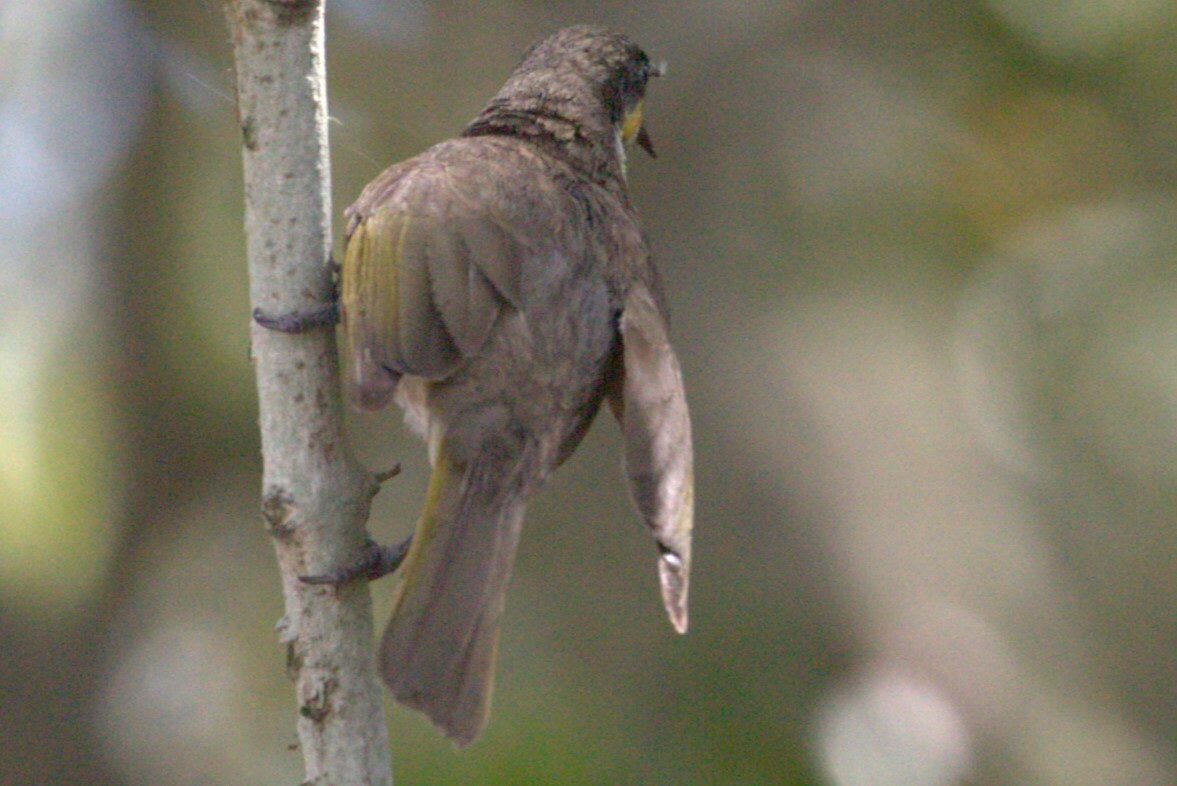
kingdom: Animalia
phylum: Chordata
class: Aves
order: Passeriformes
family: Meliphagidae
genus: Gavicalis
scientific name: Gavicalis fasciogularis
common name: Mangrove honeyeater
